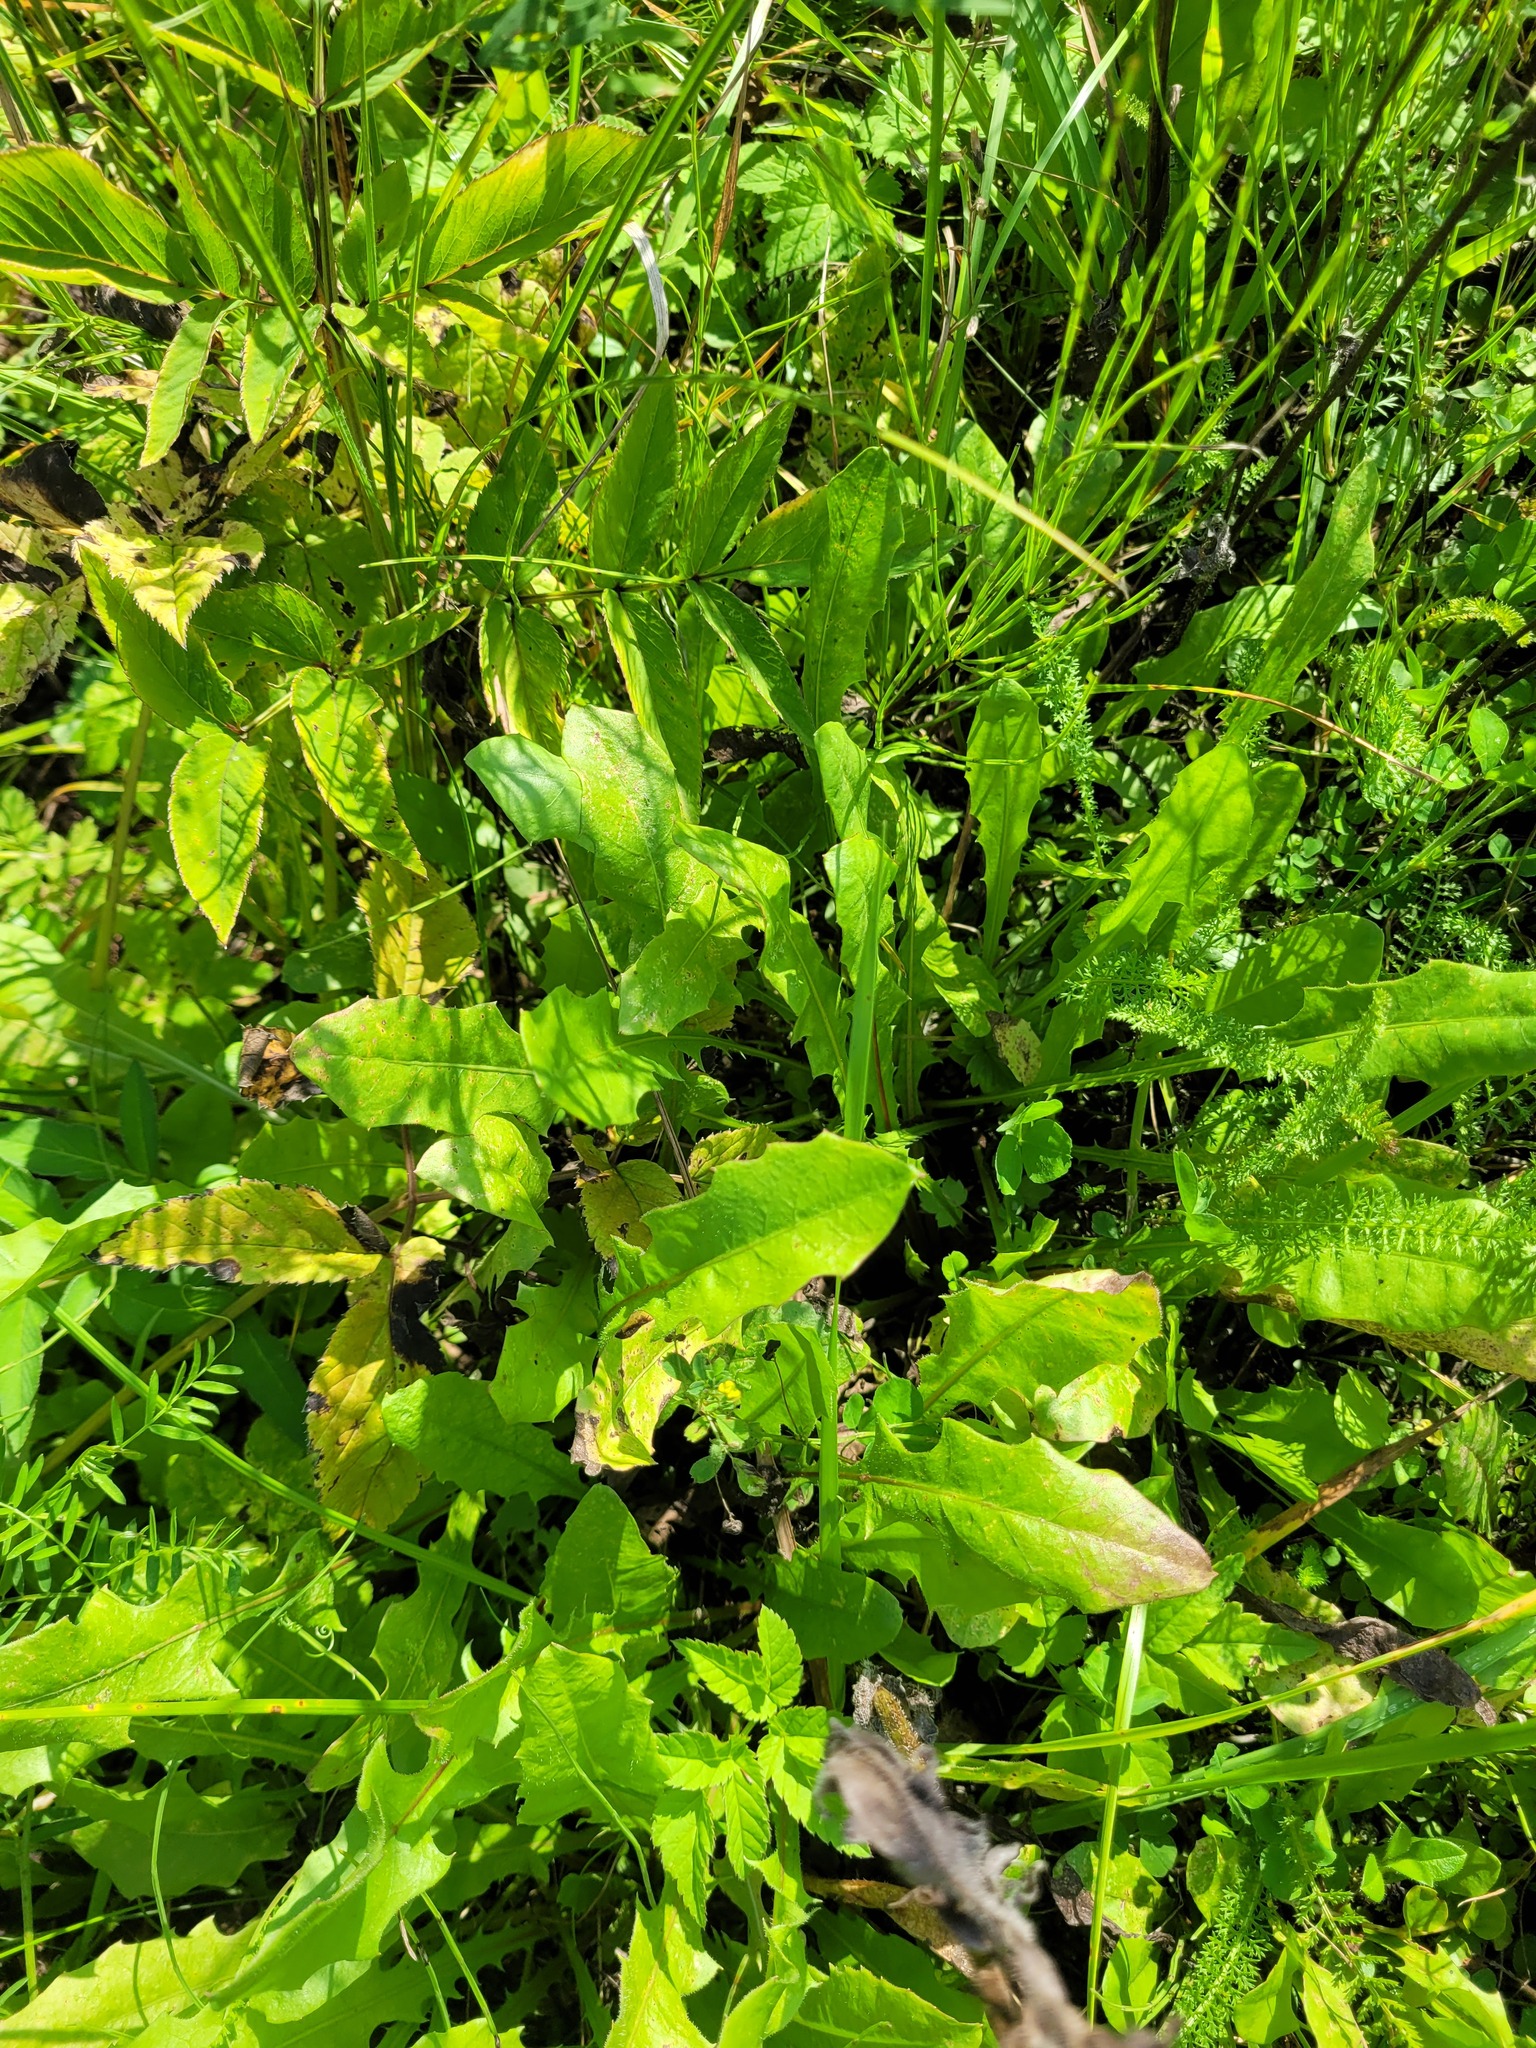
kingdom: Plantae
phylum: Tracheophyta
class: Magnoliopsida
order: Asterales
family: Asteraceae
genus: Leontodon
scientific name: Leontodon hispidus
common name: Rough hawkbit
